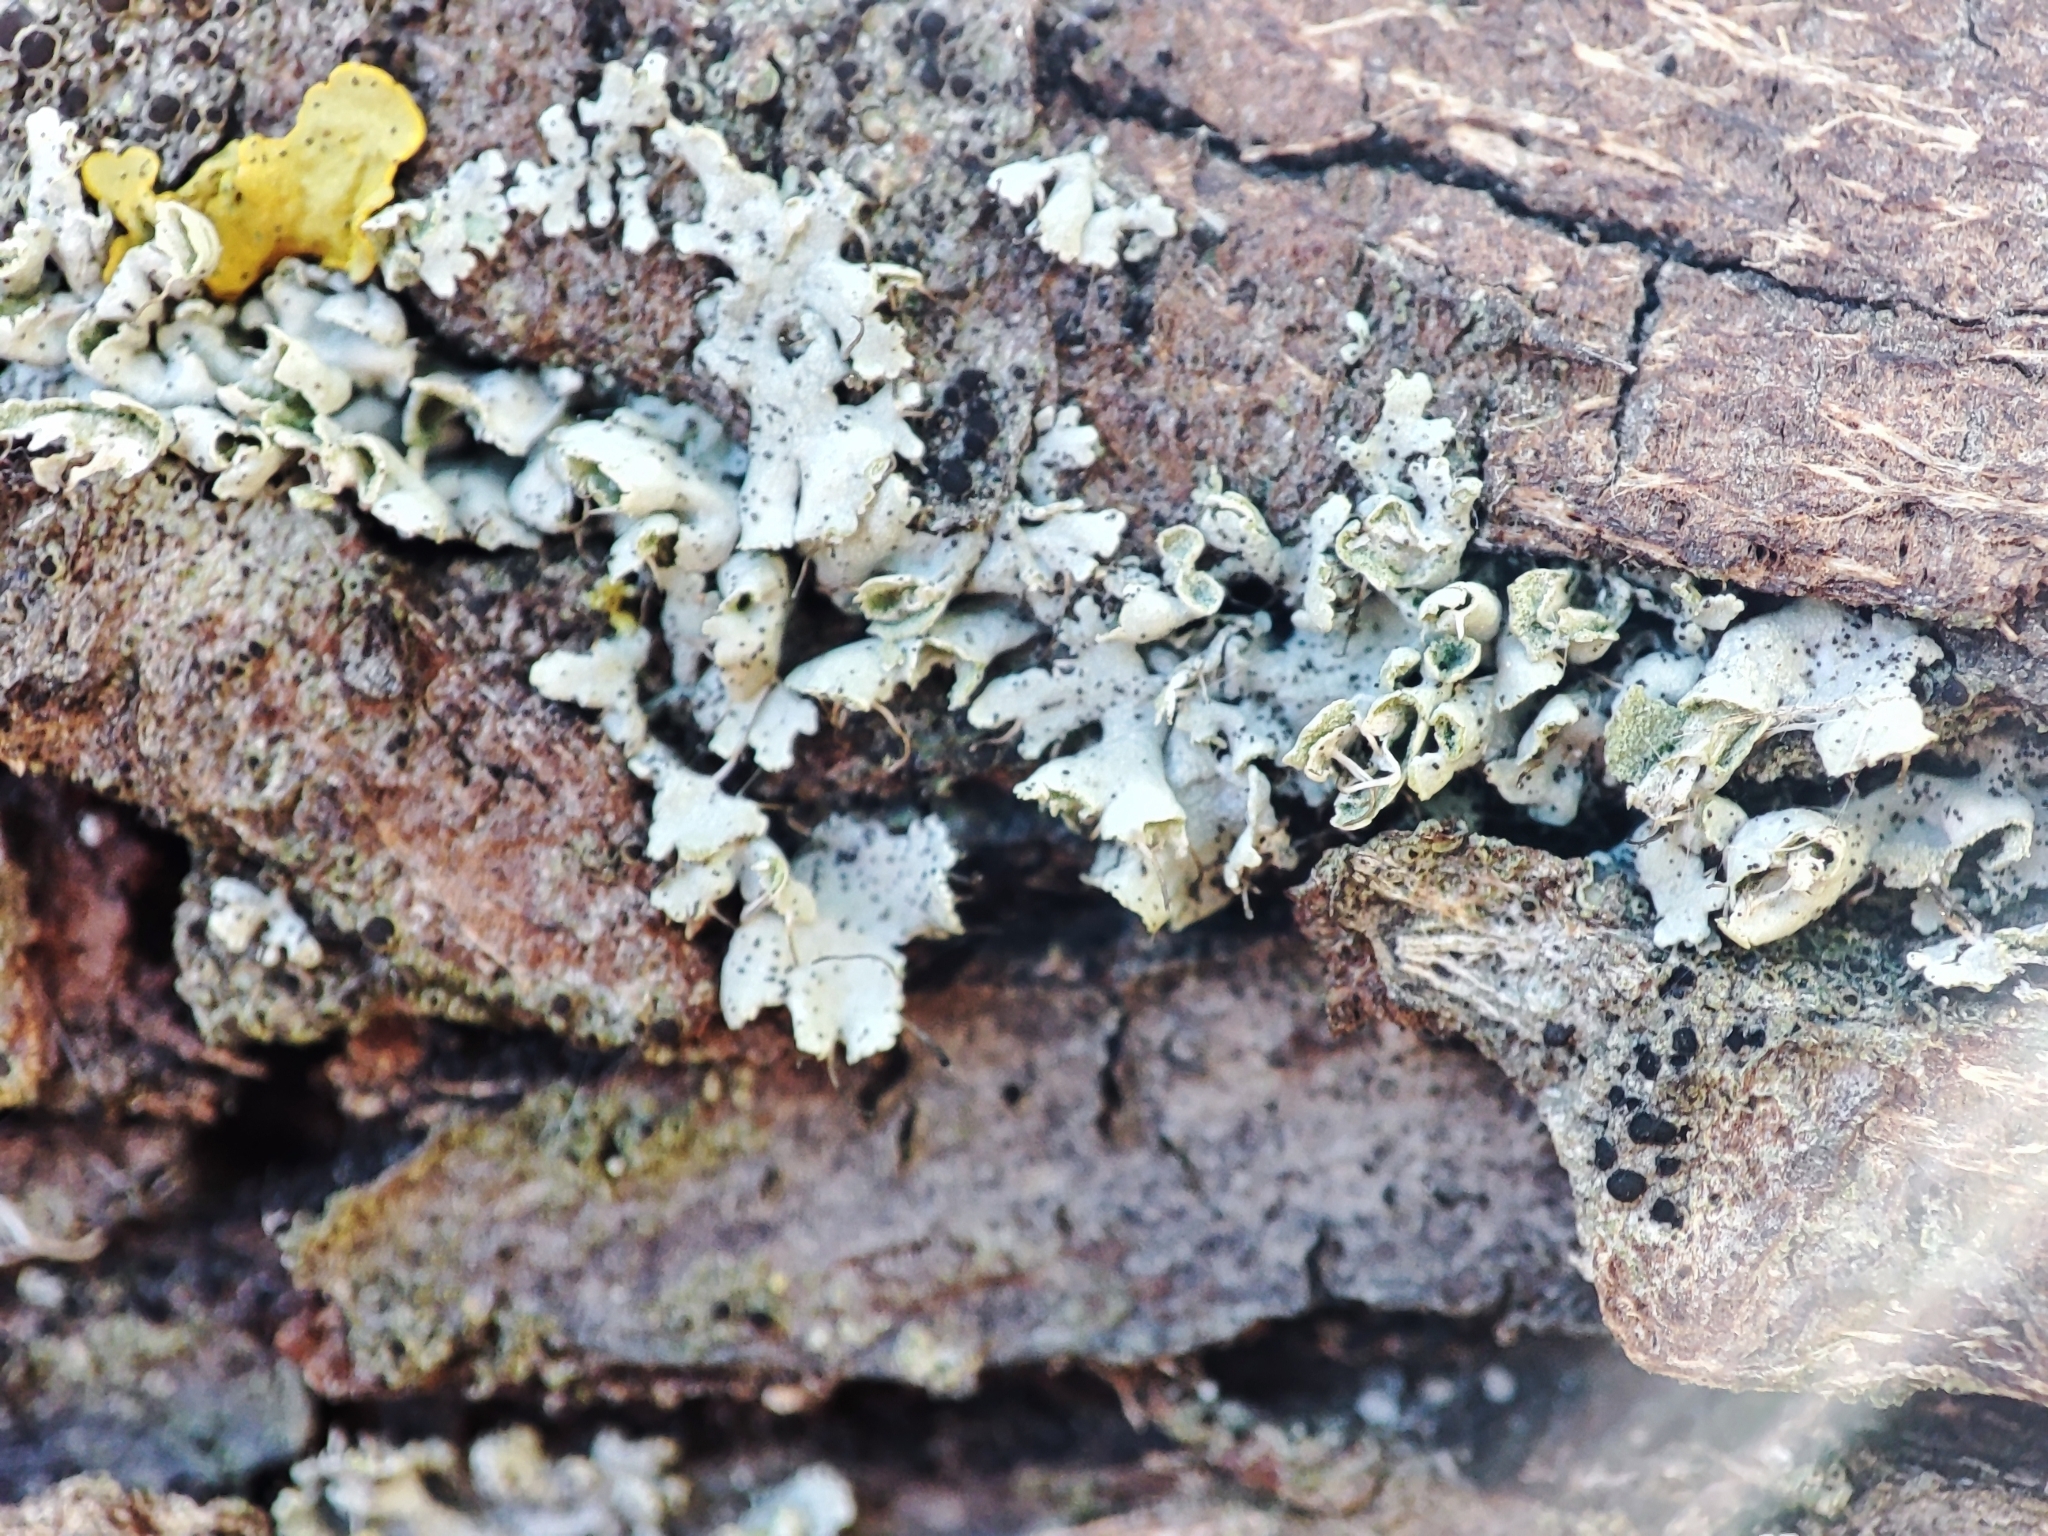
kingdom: Fungi
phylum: Ascomycota
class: Lecanoromycetes
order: Caliciales
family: Physciaceae
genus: Physcia
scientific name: Physcia adscendens
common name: Hooded rosette lichen
